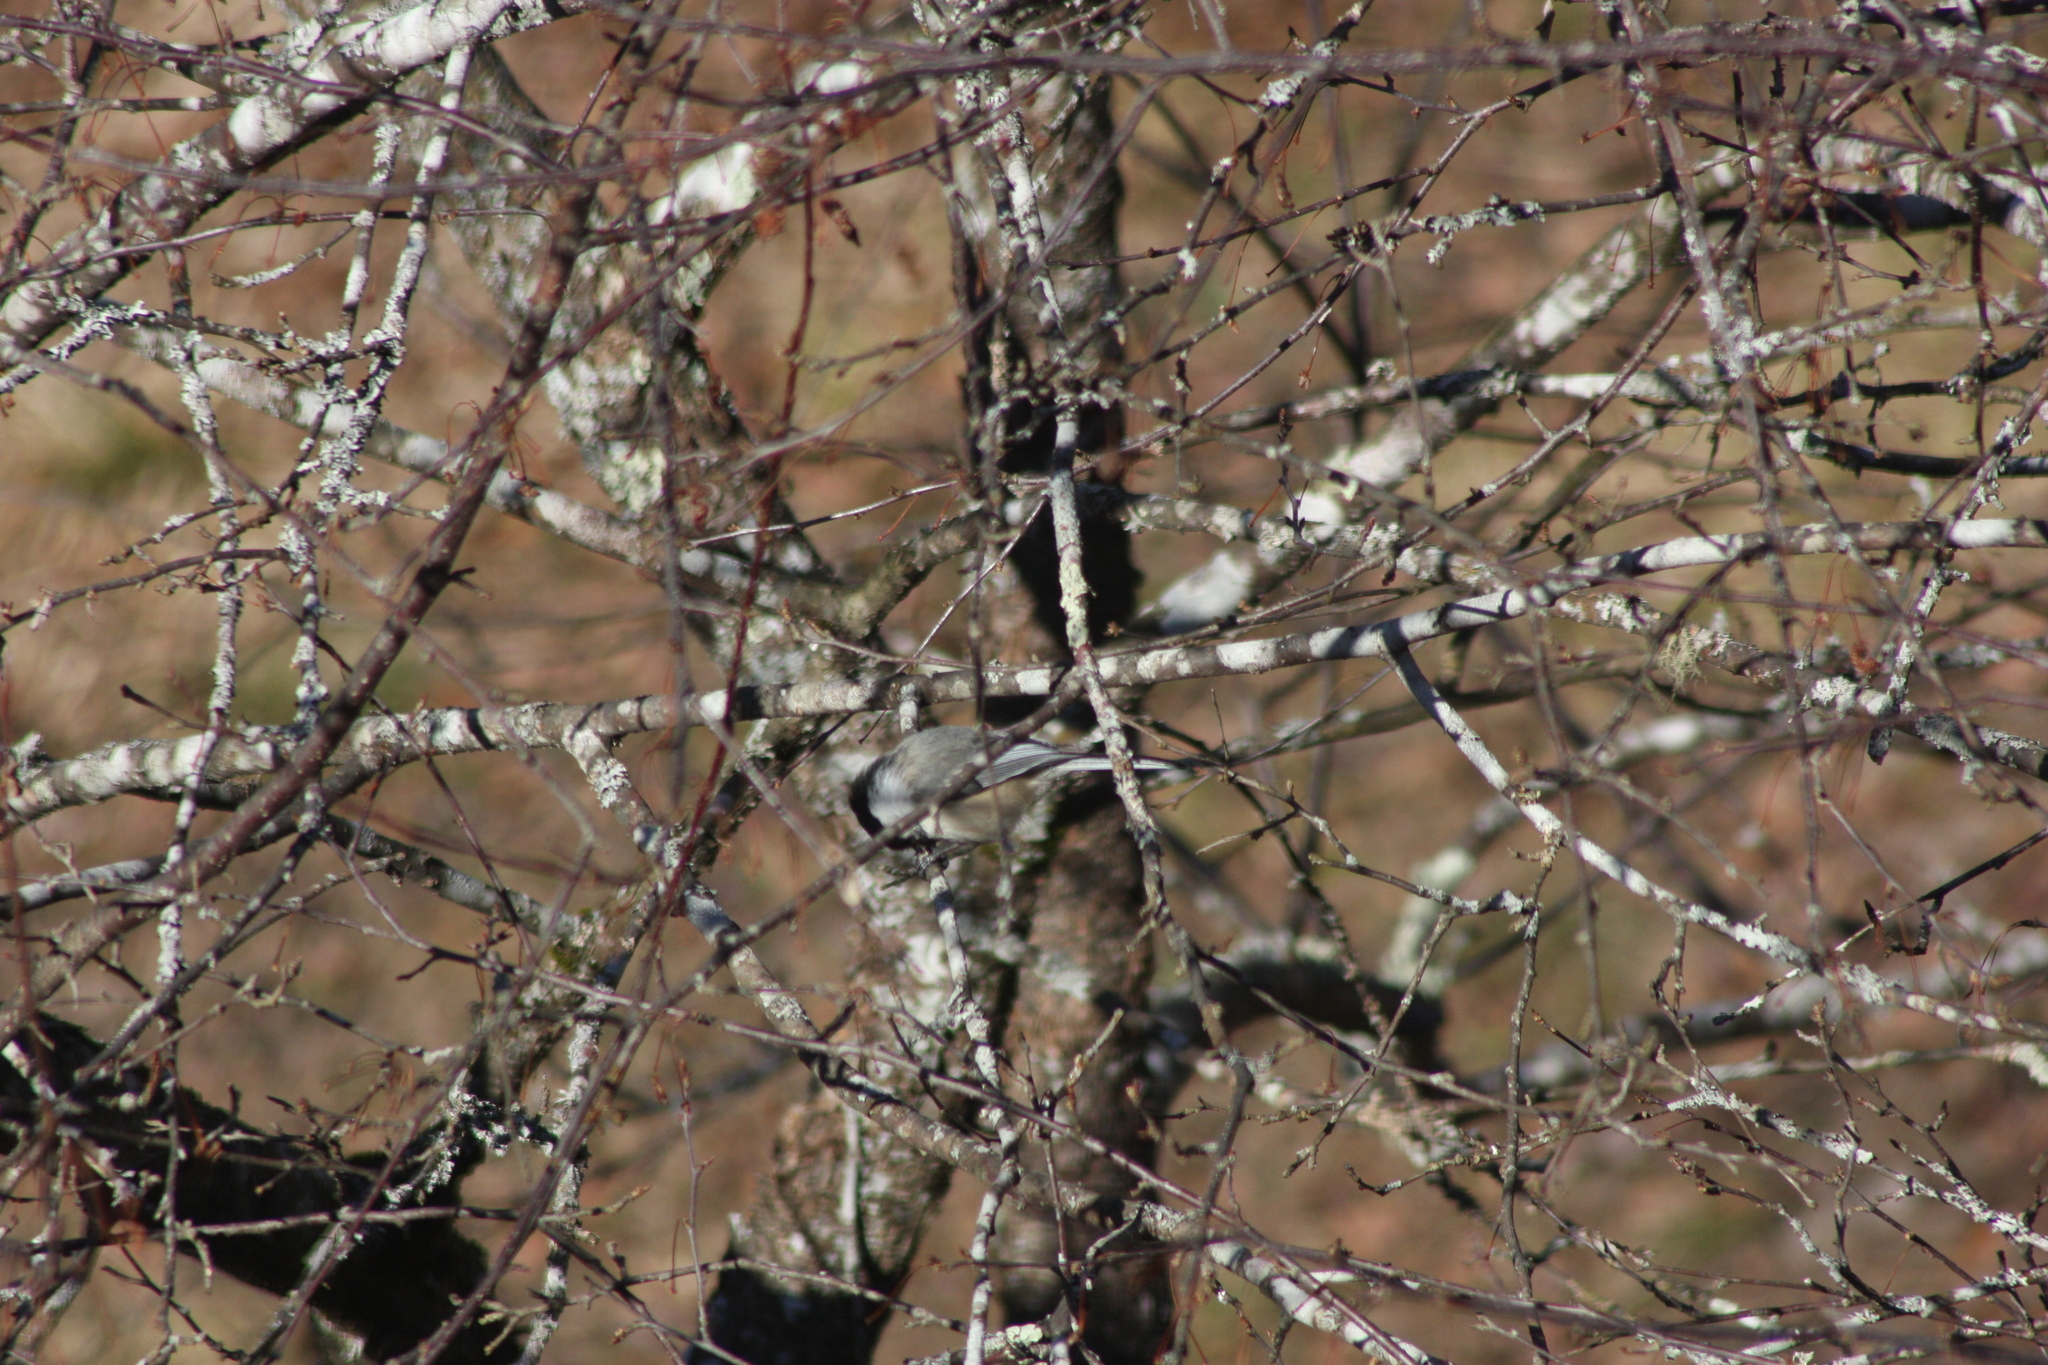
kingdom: Animalia
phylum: Chordata
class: Aves
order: Passeriformes
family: Paridae
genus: Poecile
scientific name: Poecile atricapillus
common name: Black-capped chickadee
